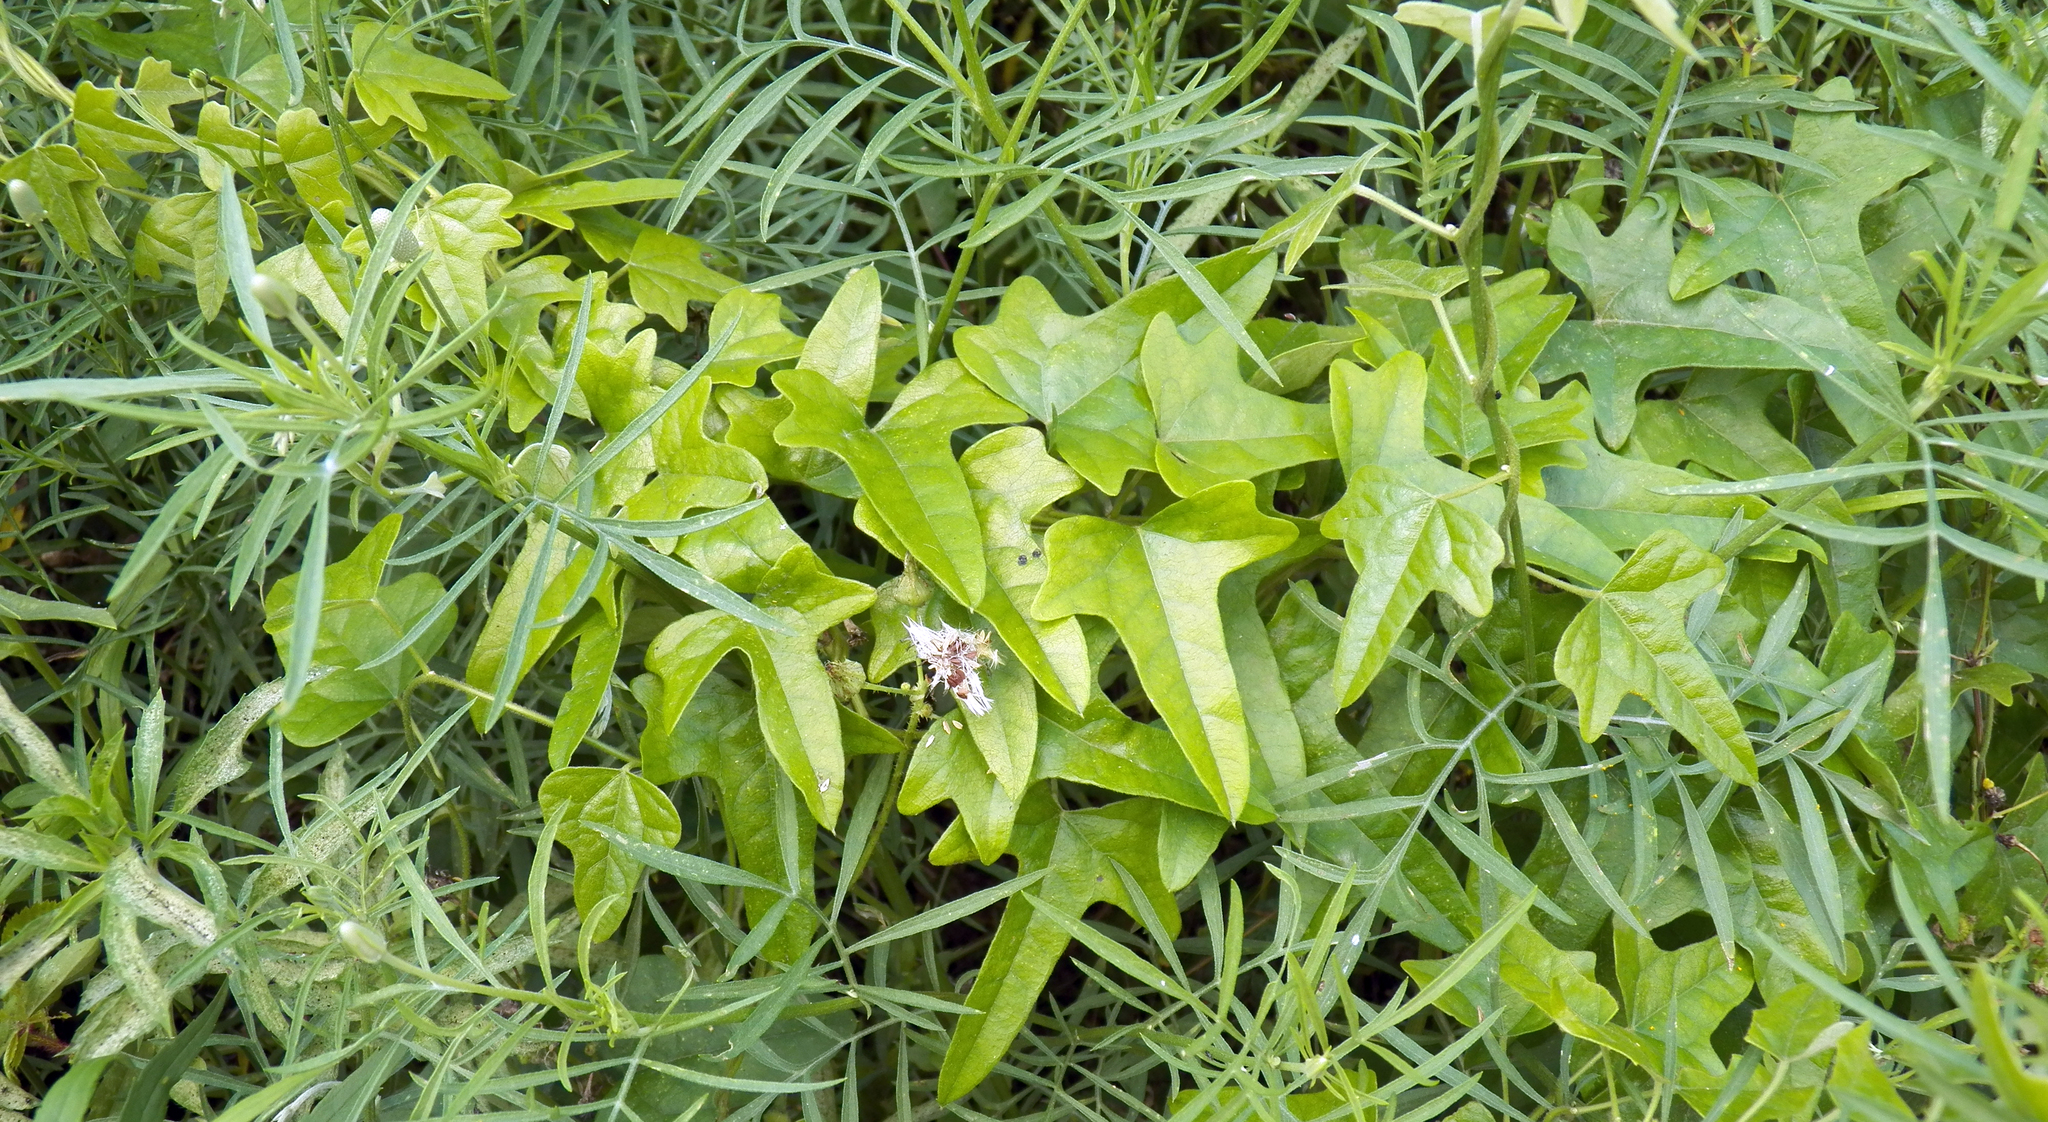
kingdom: Plantae
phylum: Tracheophyta
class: Magnoliopsida
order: Ranunculales
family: Menispermaceae
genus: Cocculus
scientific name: Cocculus carolinus
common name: Carolina moonseed
